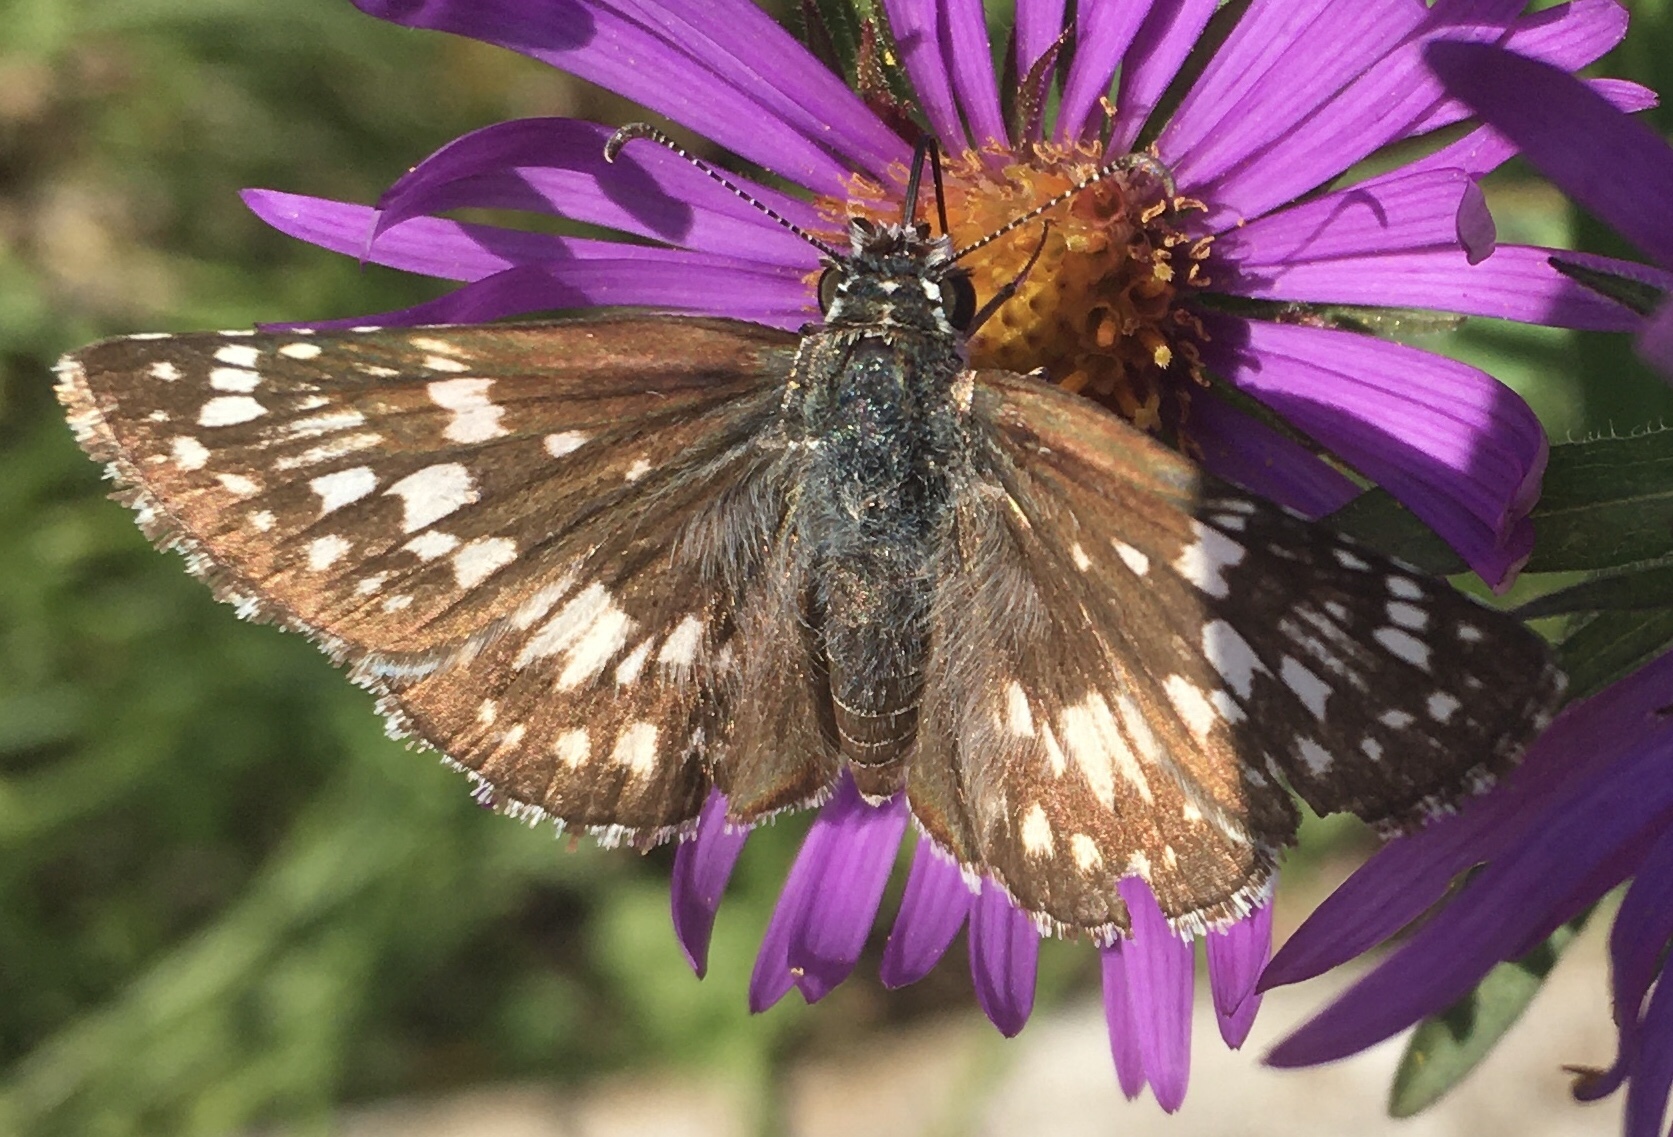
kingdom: Animalia
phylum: Arthropoda
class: Insecta
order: Lepidoptera
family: Hesperiidae
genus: Burnsius
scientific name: Burnsius communis
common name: Common checkered-skipper
